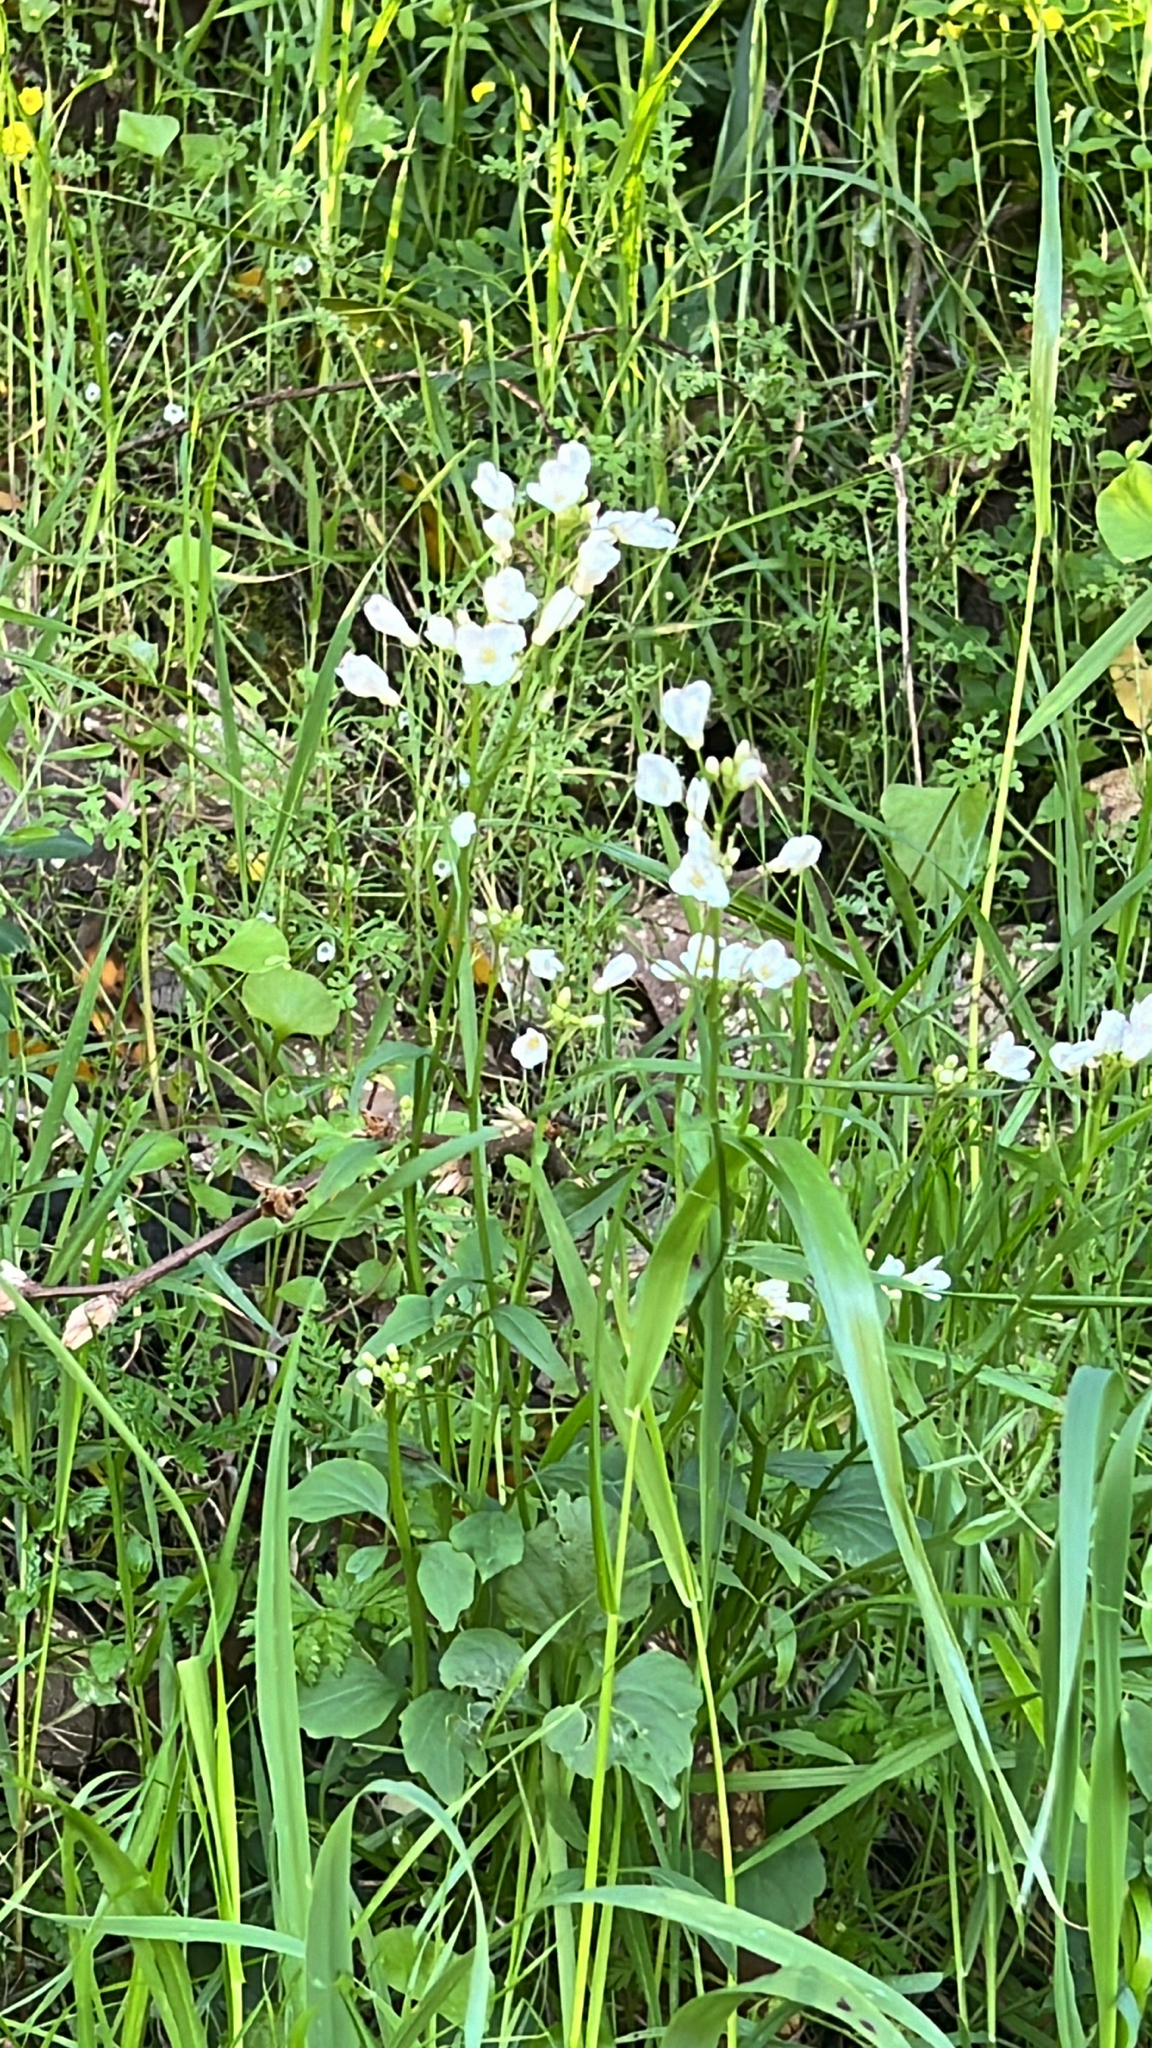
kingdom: Plantae
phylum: Tracheophyta
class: Magnoliopsida
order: Brassicales
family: Brassicaceae
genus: Cardamine
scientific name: Cardamine californica
